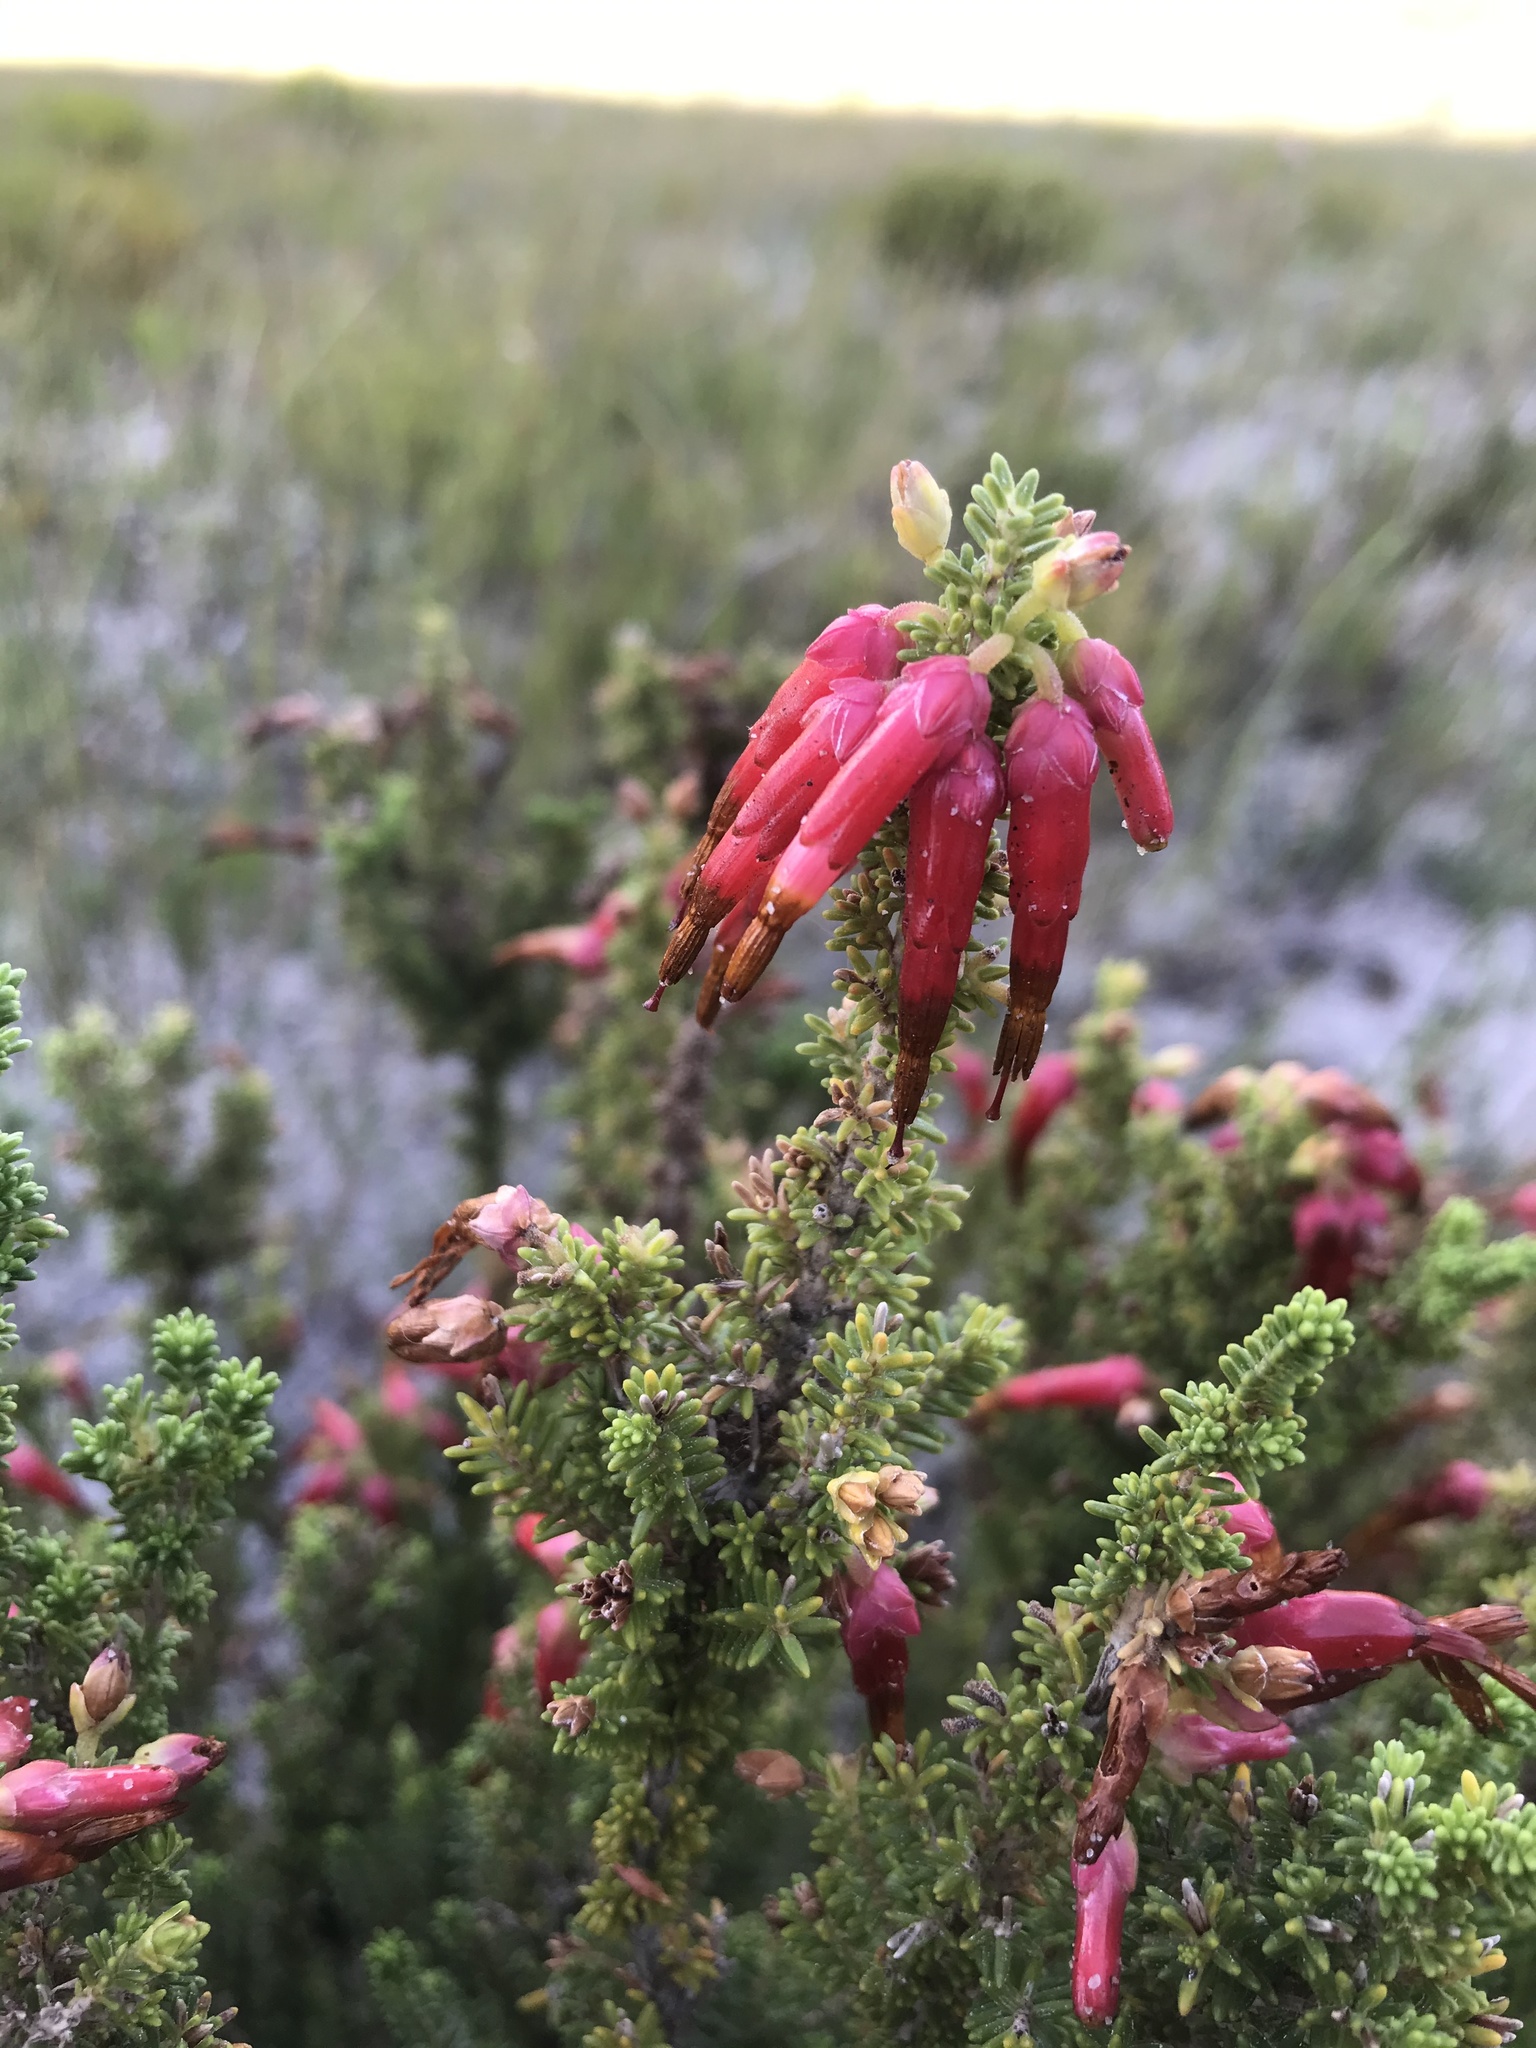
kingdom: Plantae
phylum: Tracheophyta
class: Magnoliopsida
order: Ericales
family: Ericaceae
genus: Erica
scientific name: Erica monadelphia
